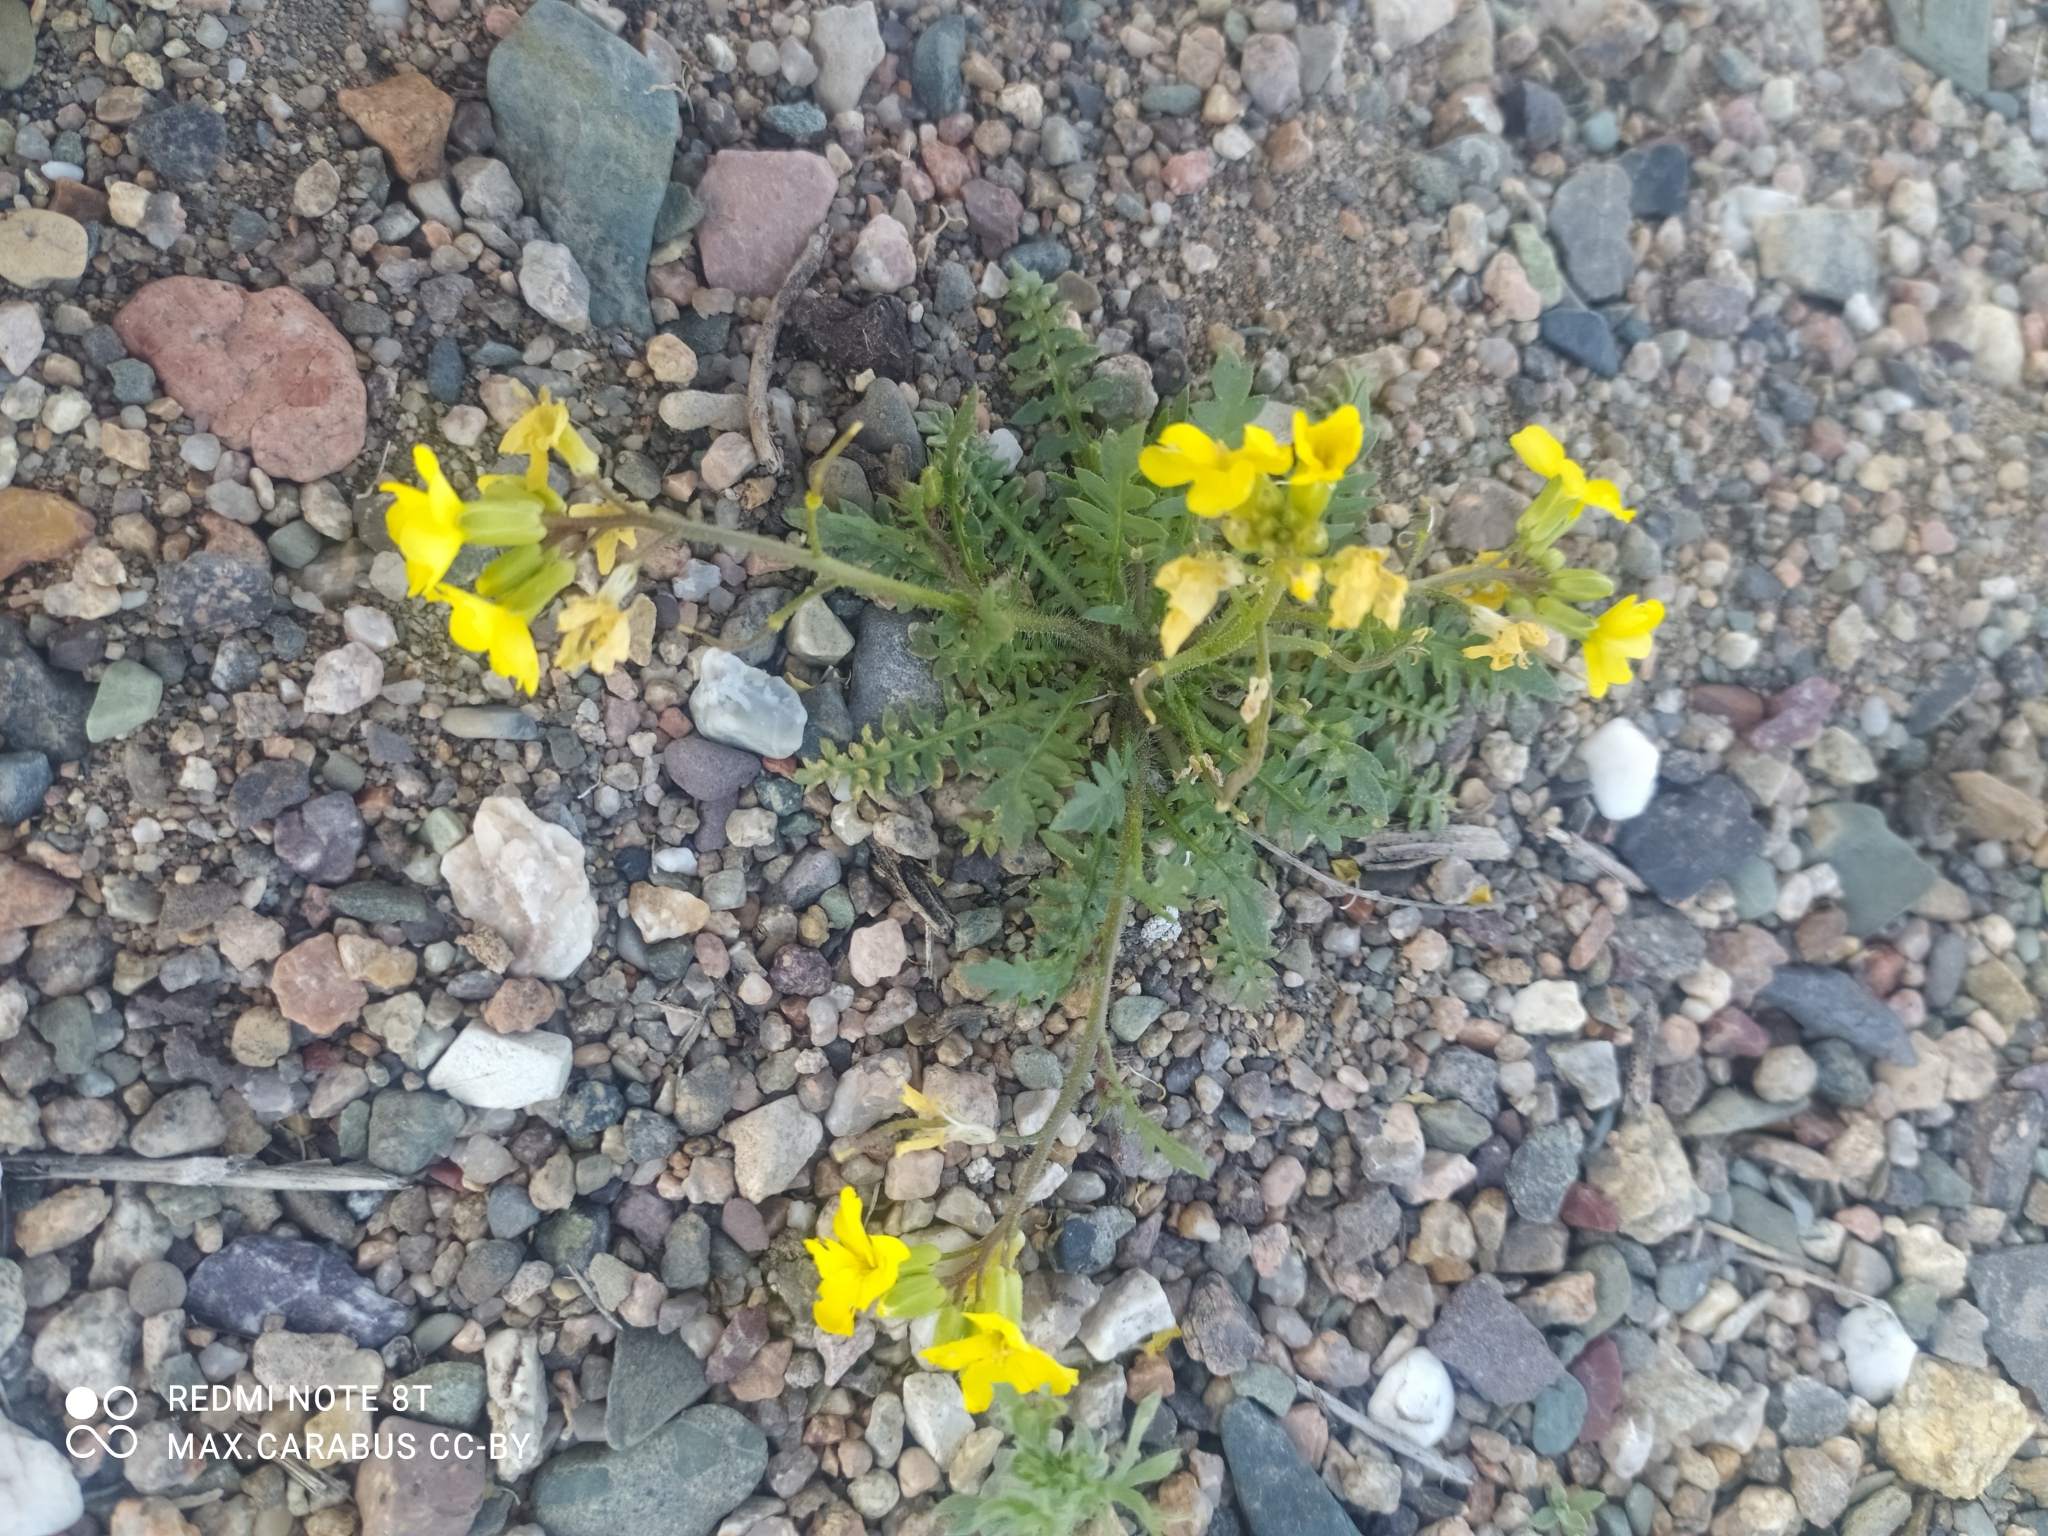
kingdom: Plantae
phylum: Tracheophyta
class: Magnoliopsida
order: Brassicales
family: Brassicaceae
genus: Chorispora
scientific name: Chorispora sibirica
